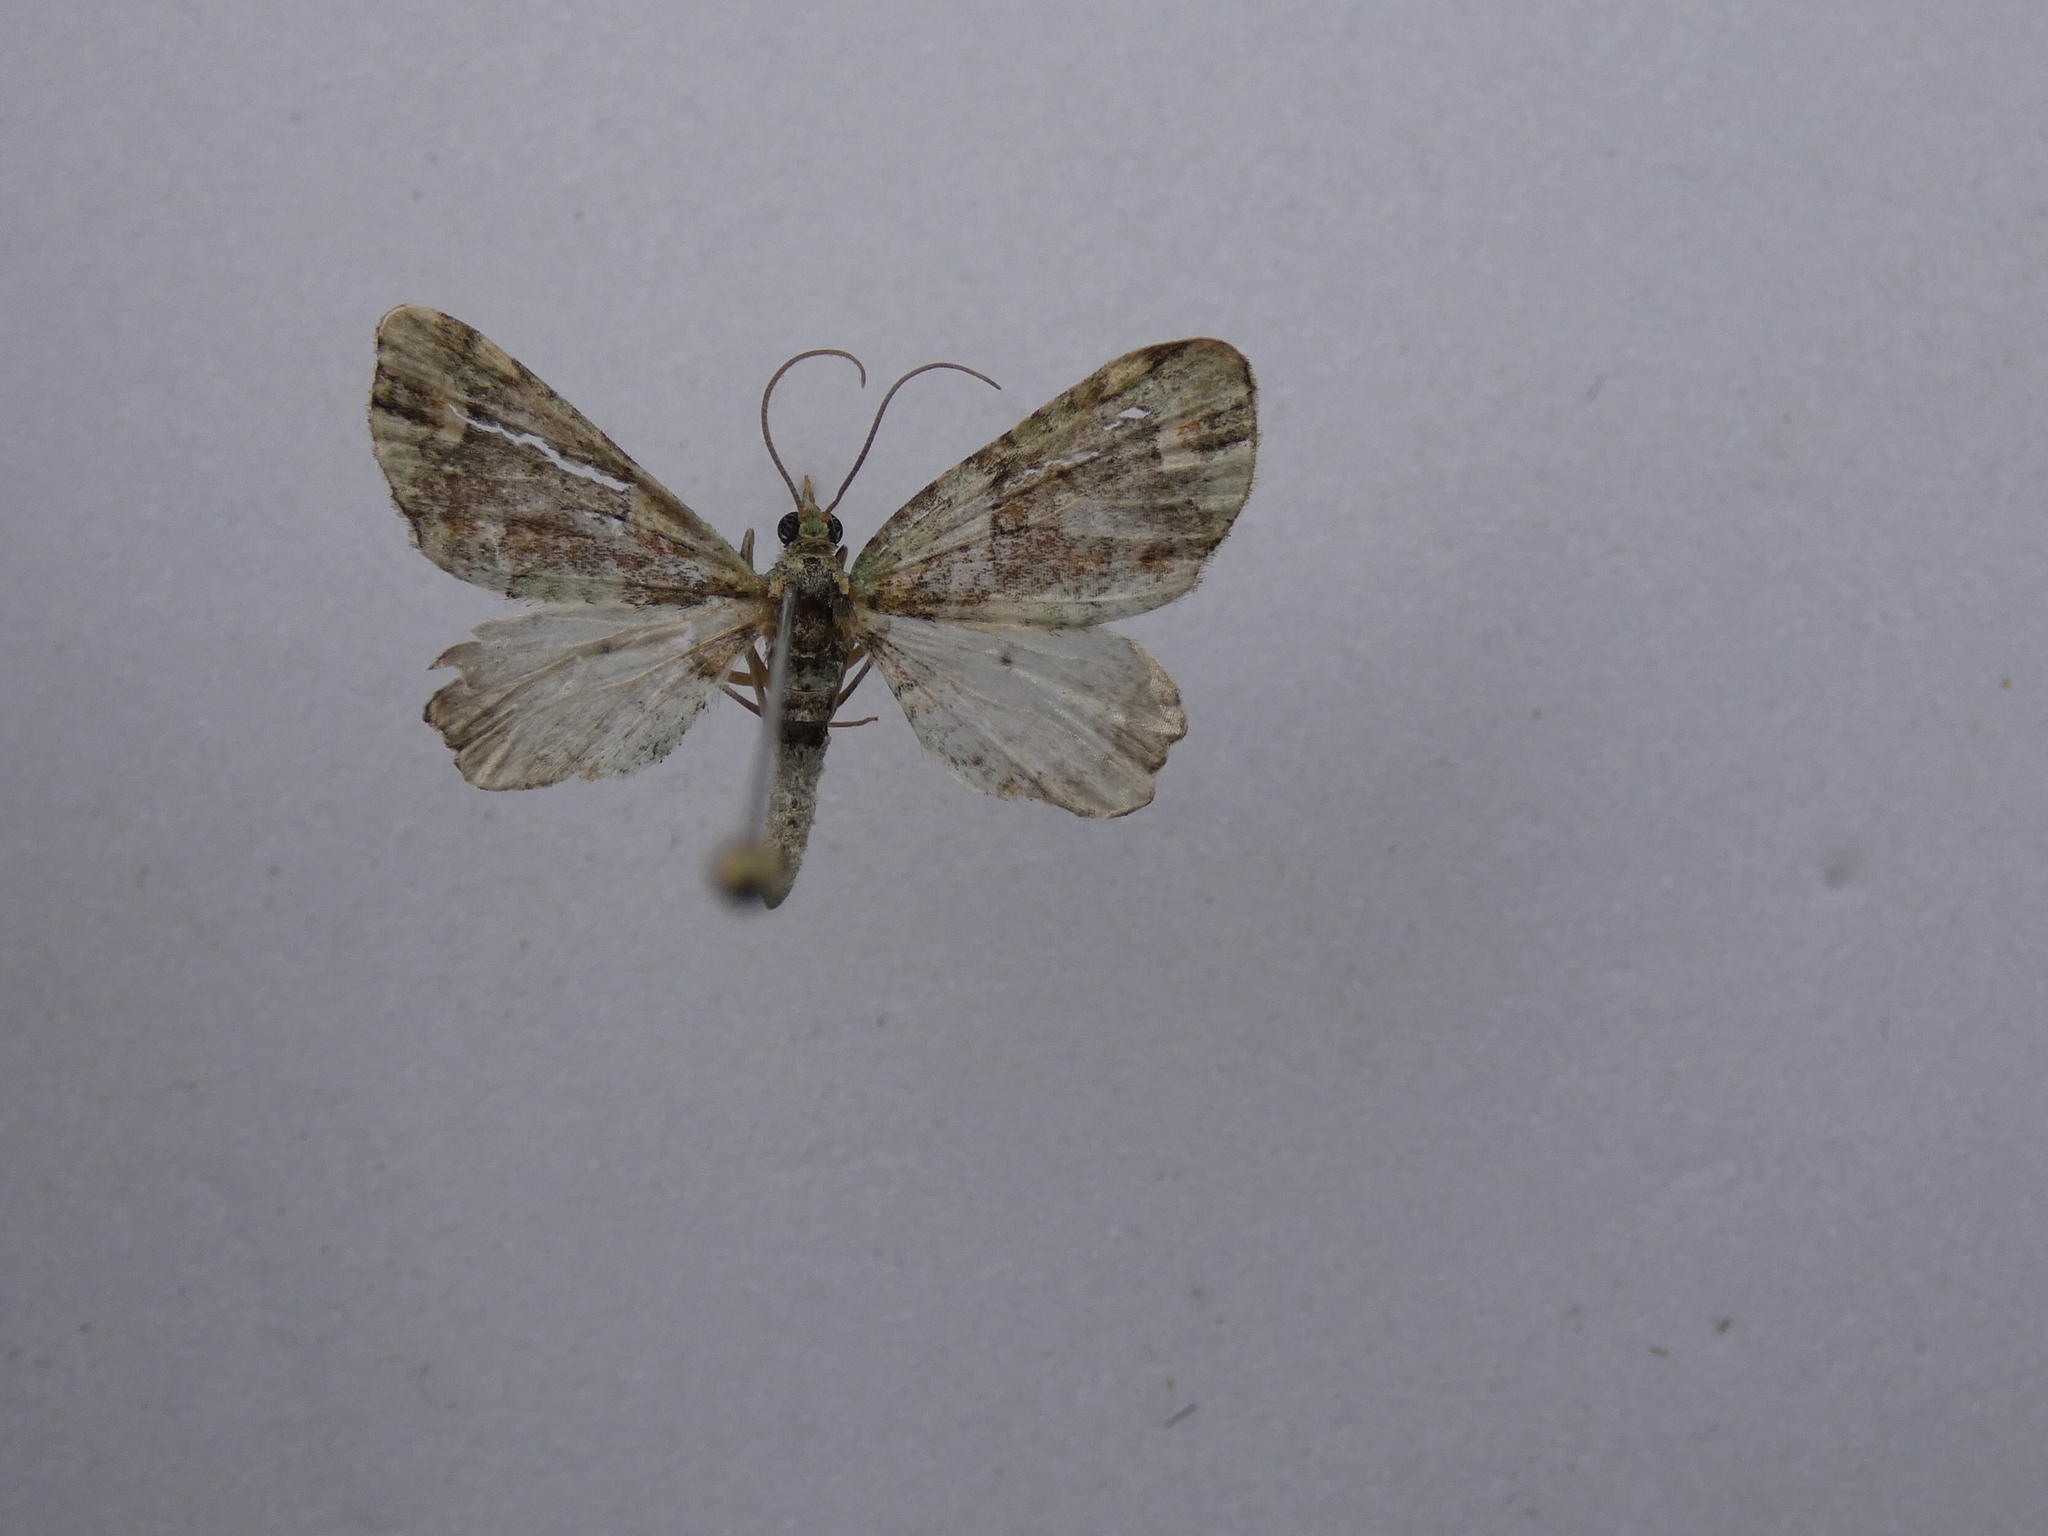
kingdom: Animalia
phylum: Arthropoda
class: Insecta
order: Lepidoptera
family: Geometridae
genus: Idaea
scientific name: Idaea mutanda
